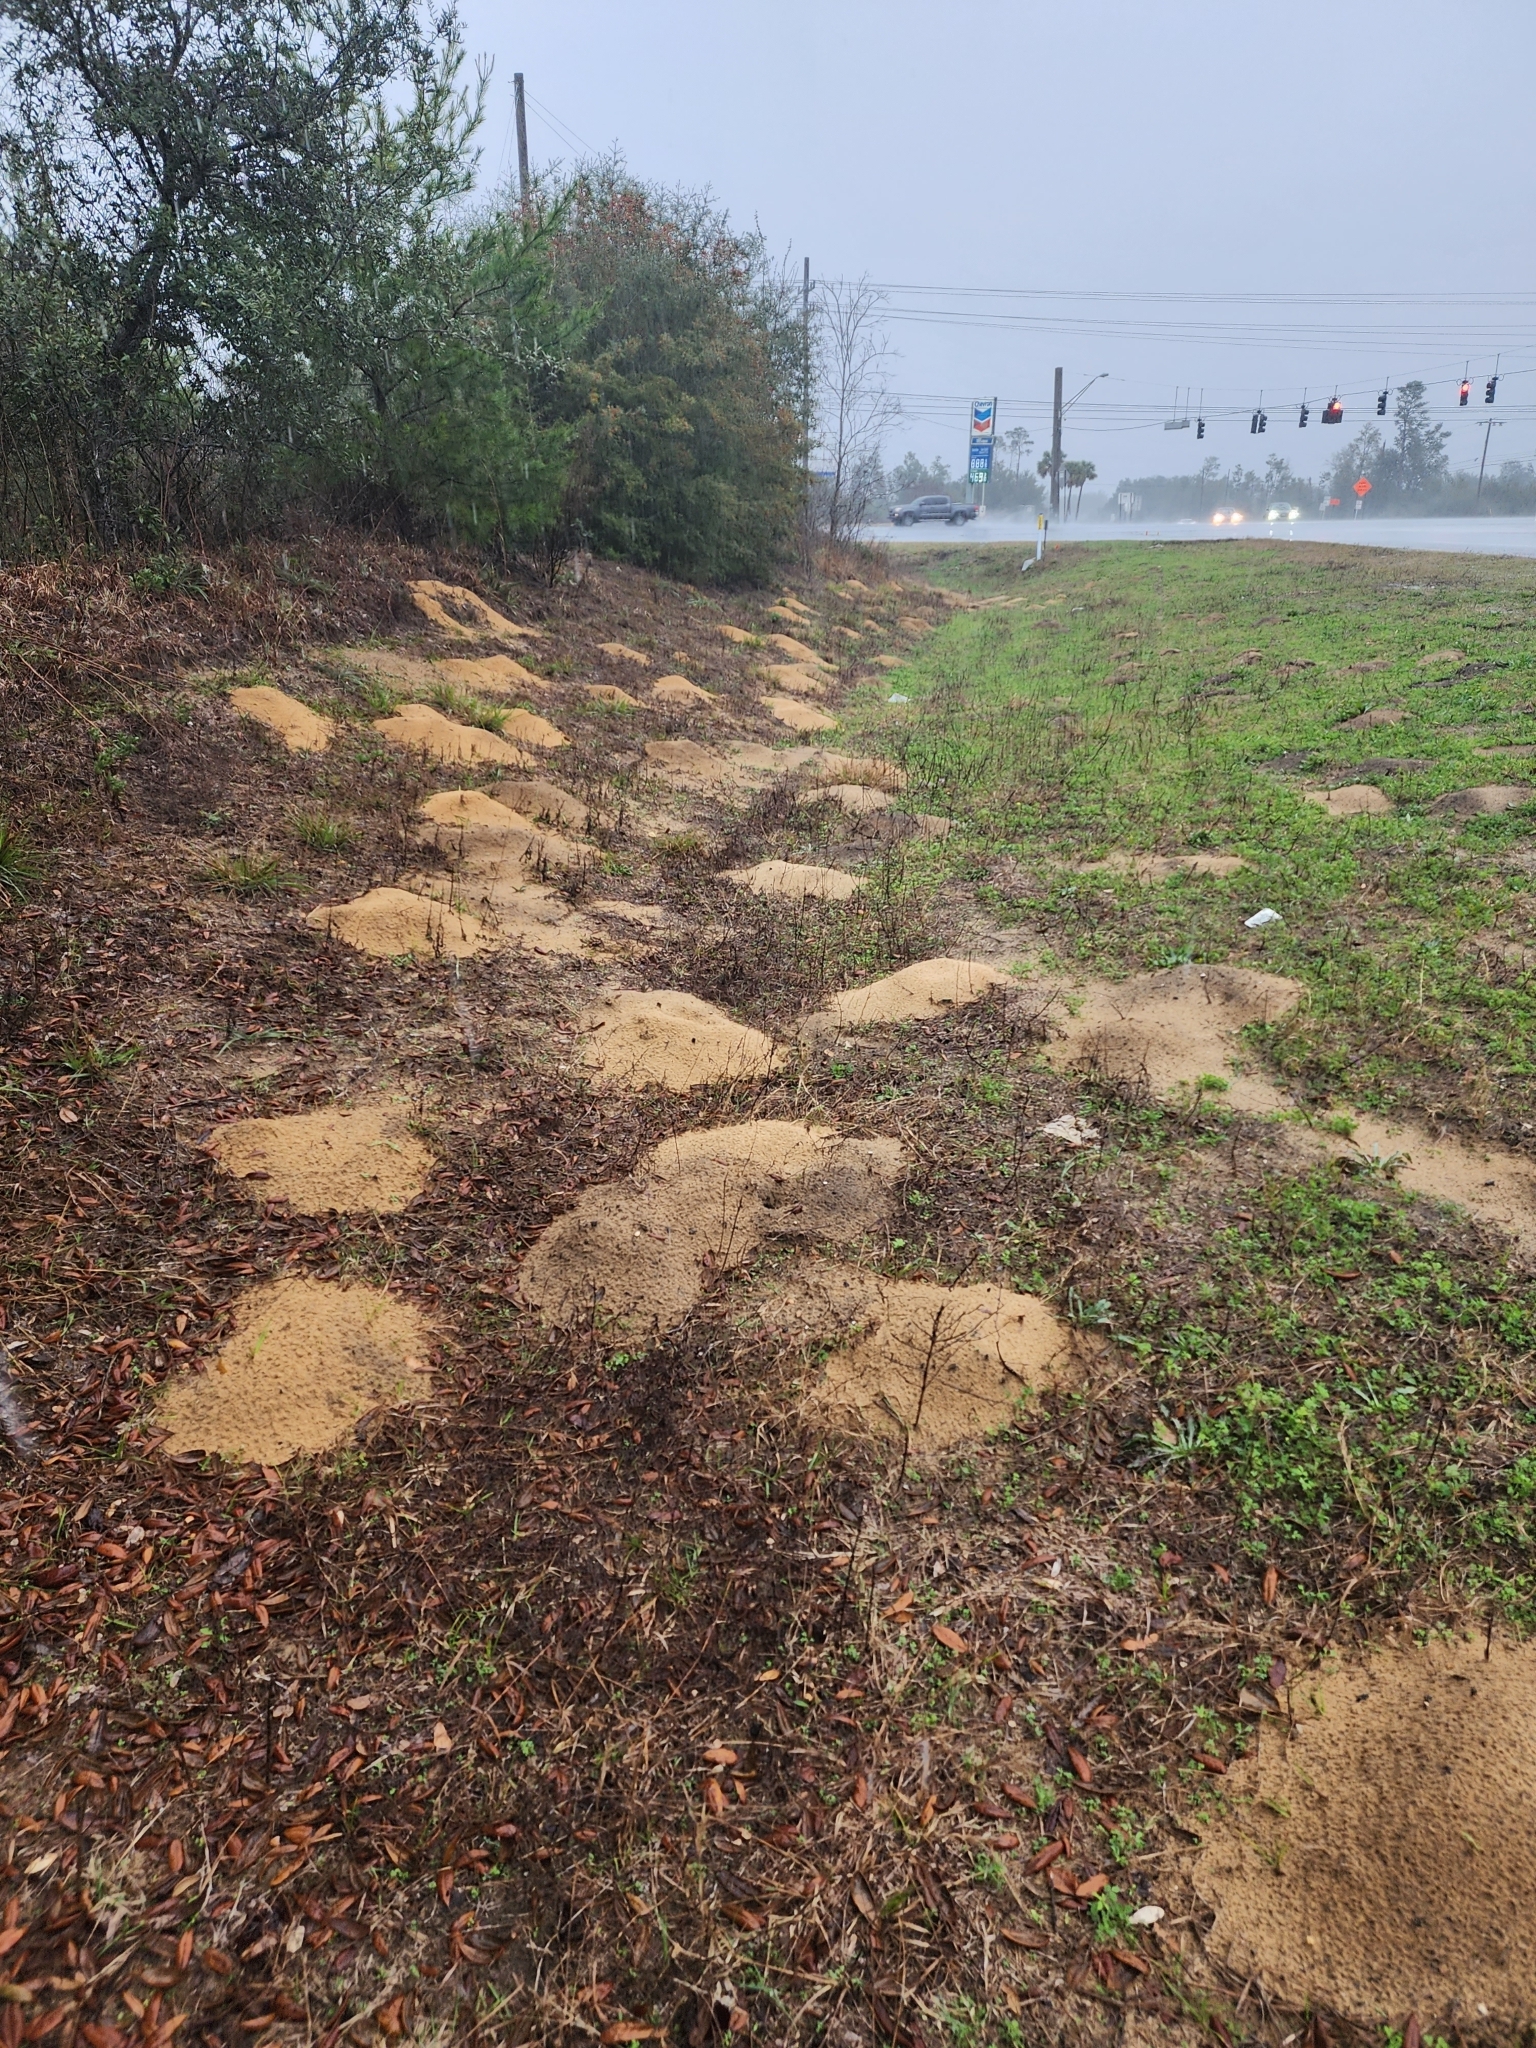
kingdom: Animalia
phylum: Chordata
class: Mammalia
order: Rodentia
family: Geomyidae
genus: Geomys
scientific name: Geomys pinetis
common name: Southeastern pocket gopher
